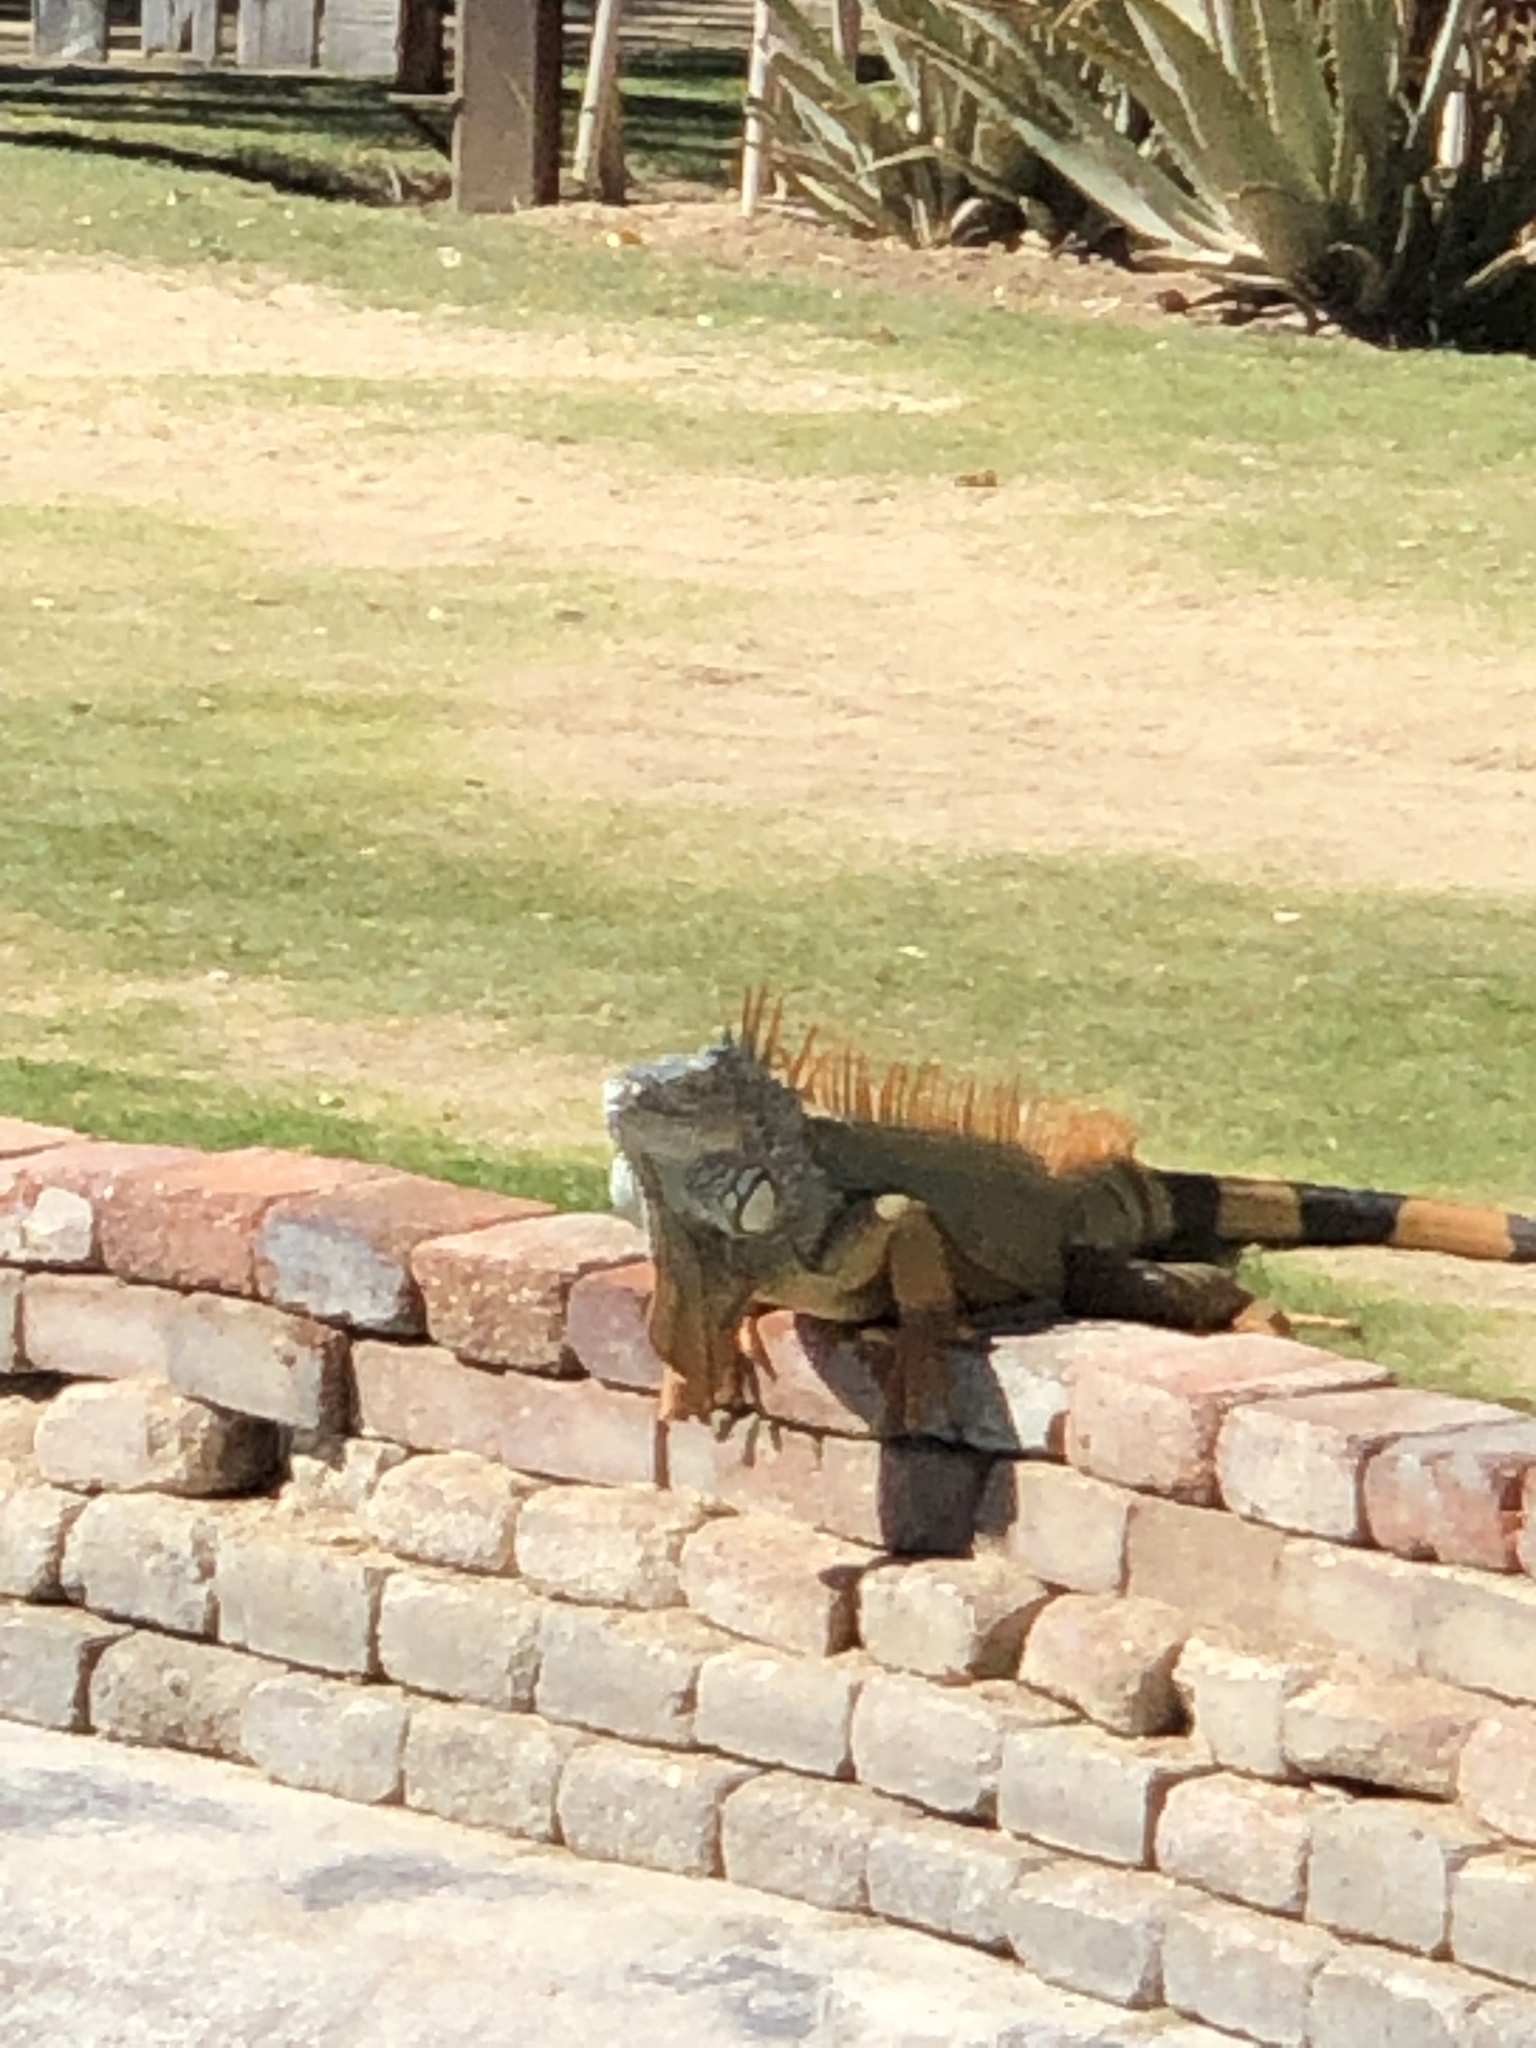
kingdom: Animalia
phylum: Chordata
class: Squamata
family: Iguanidae
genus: Iguana
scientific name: Iguana iguana
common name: Green iguana
